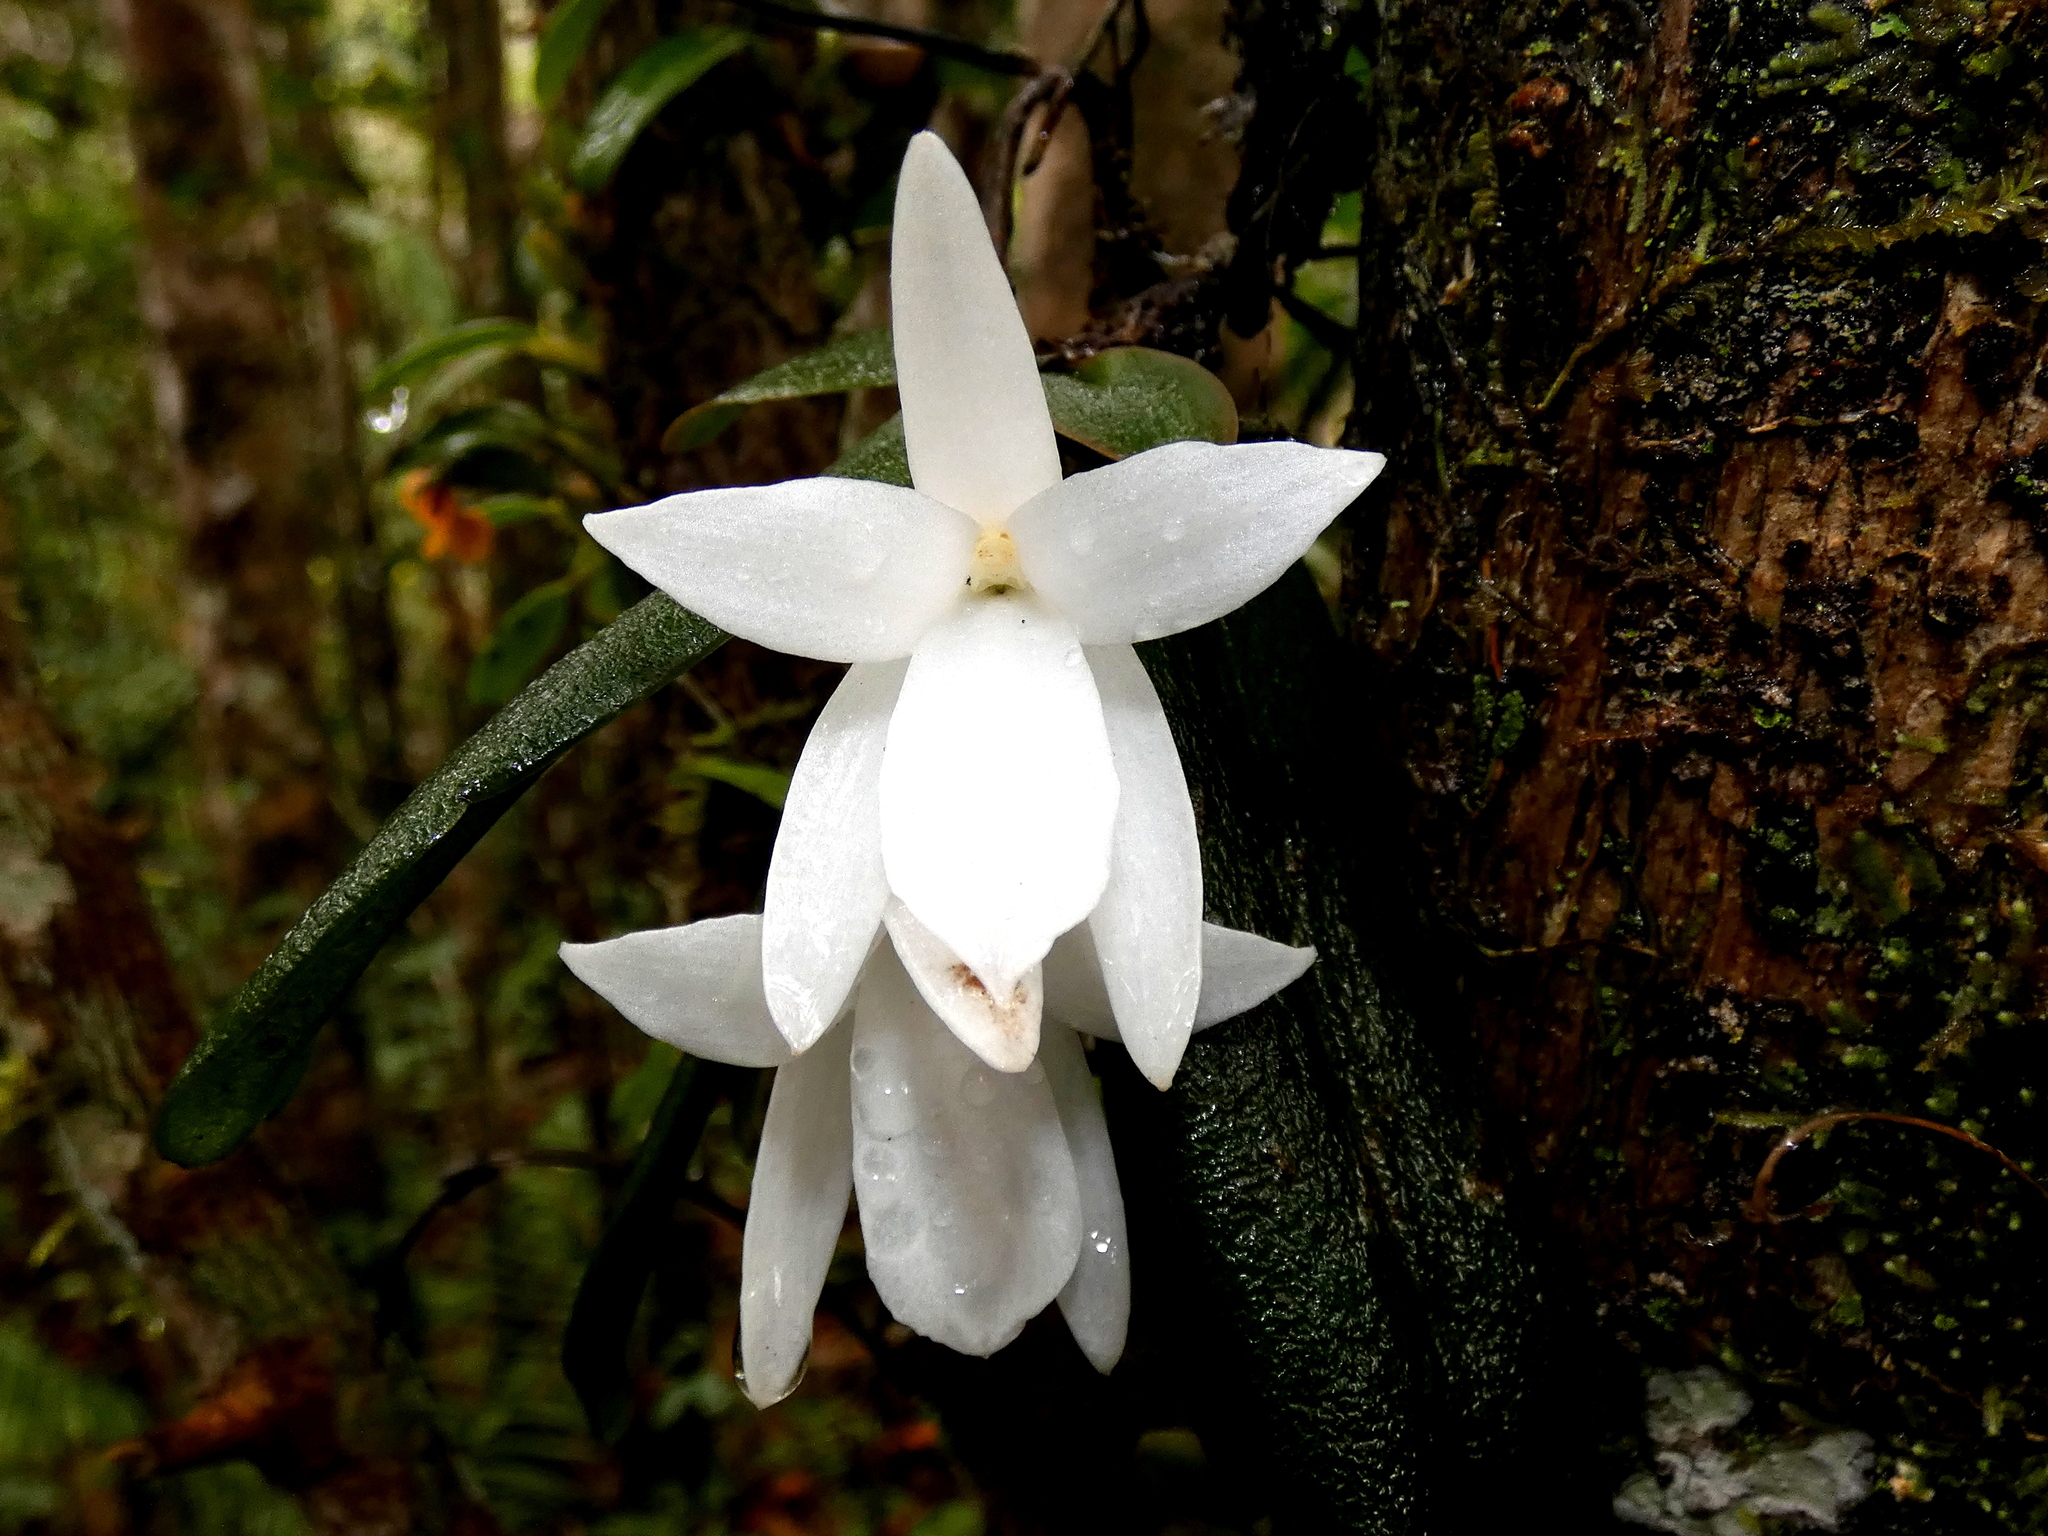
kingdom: Plantae
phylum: Tracheophyta
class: Liliopsida
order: Asparagales
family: Orchidaceae
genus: Aerangis
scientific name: Aerangis fastuosa
